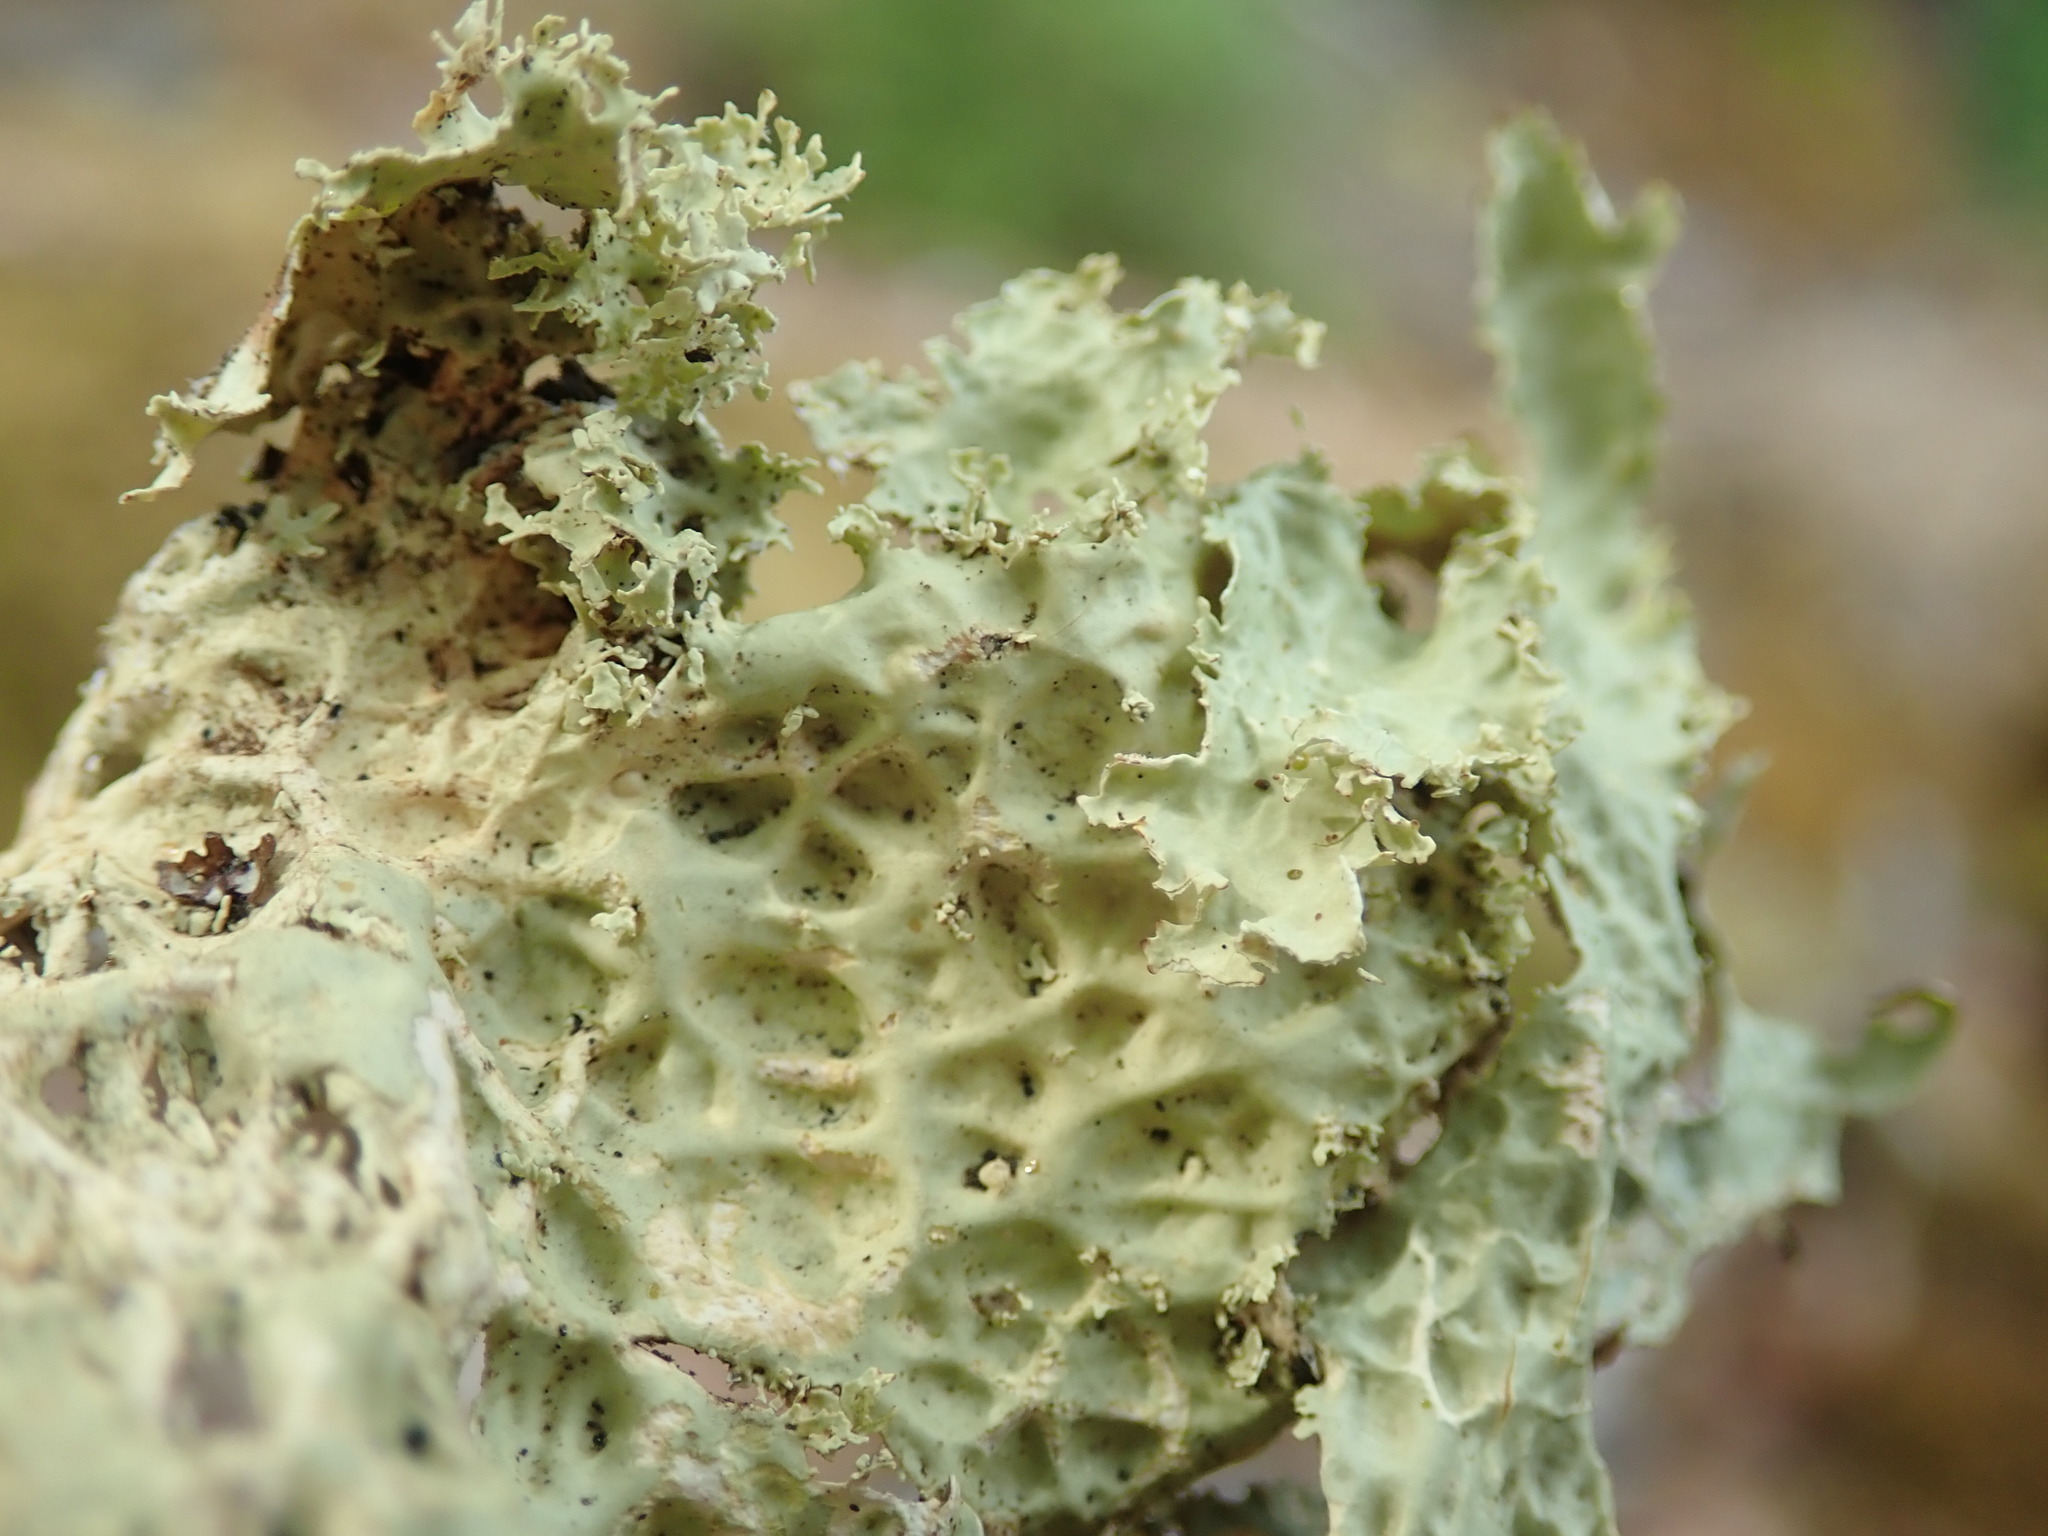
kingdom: Fungi
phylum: Ascomycota
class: Lecanoromycetes
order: Peltigerales
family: Lobariaceae
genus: Lobaria
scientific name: Lobaria oregana
